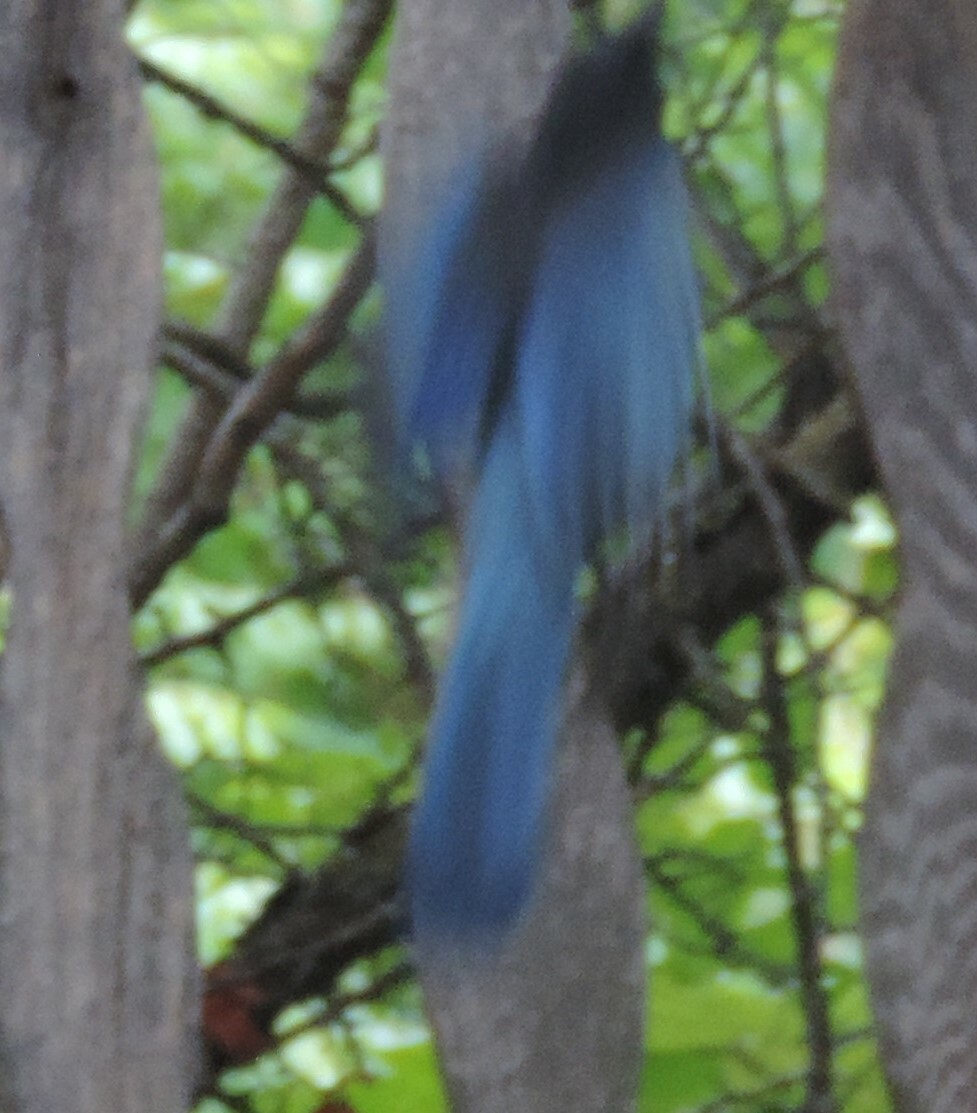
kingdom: Animalia
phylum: Chordata
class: Aves
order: Passeriformes
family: Corvidae
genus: Cyanocitta
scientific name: Cyanocitta stelleri
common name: Steller's jay
